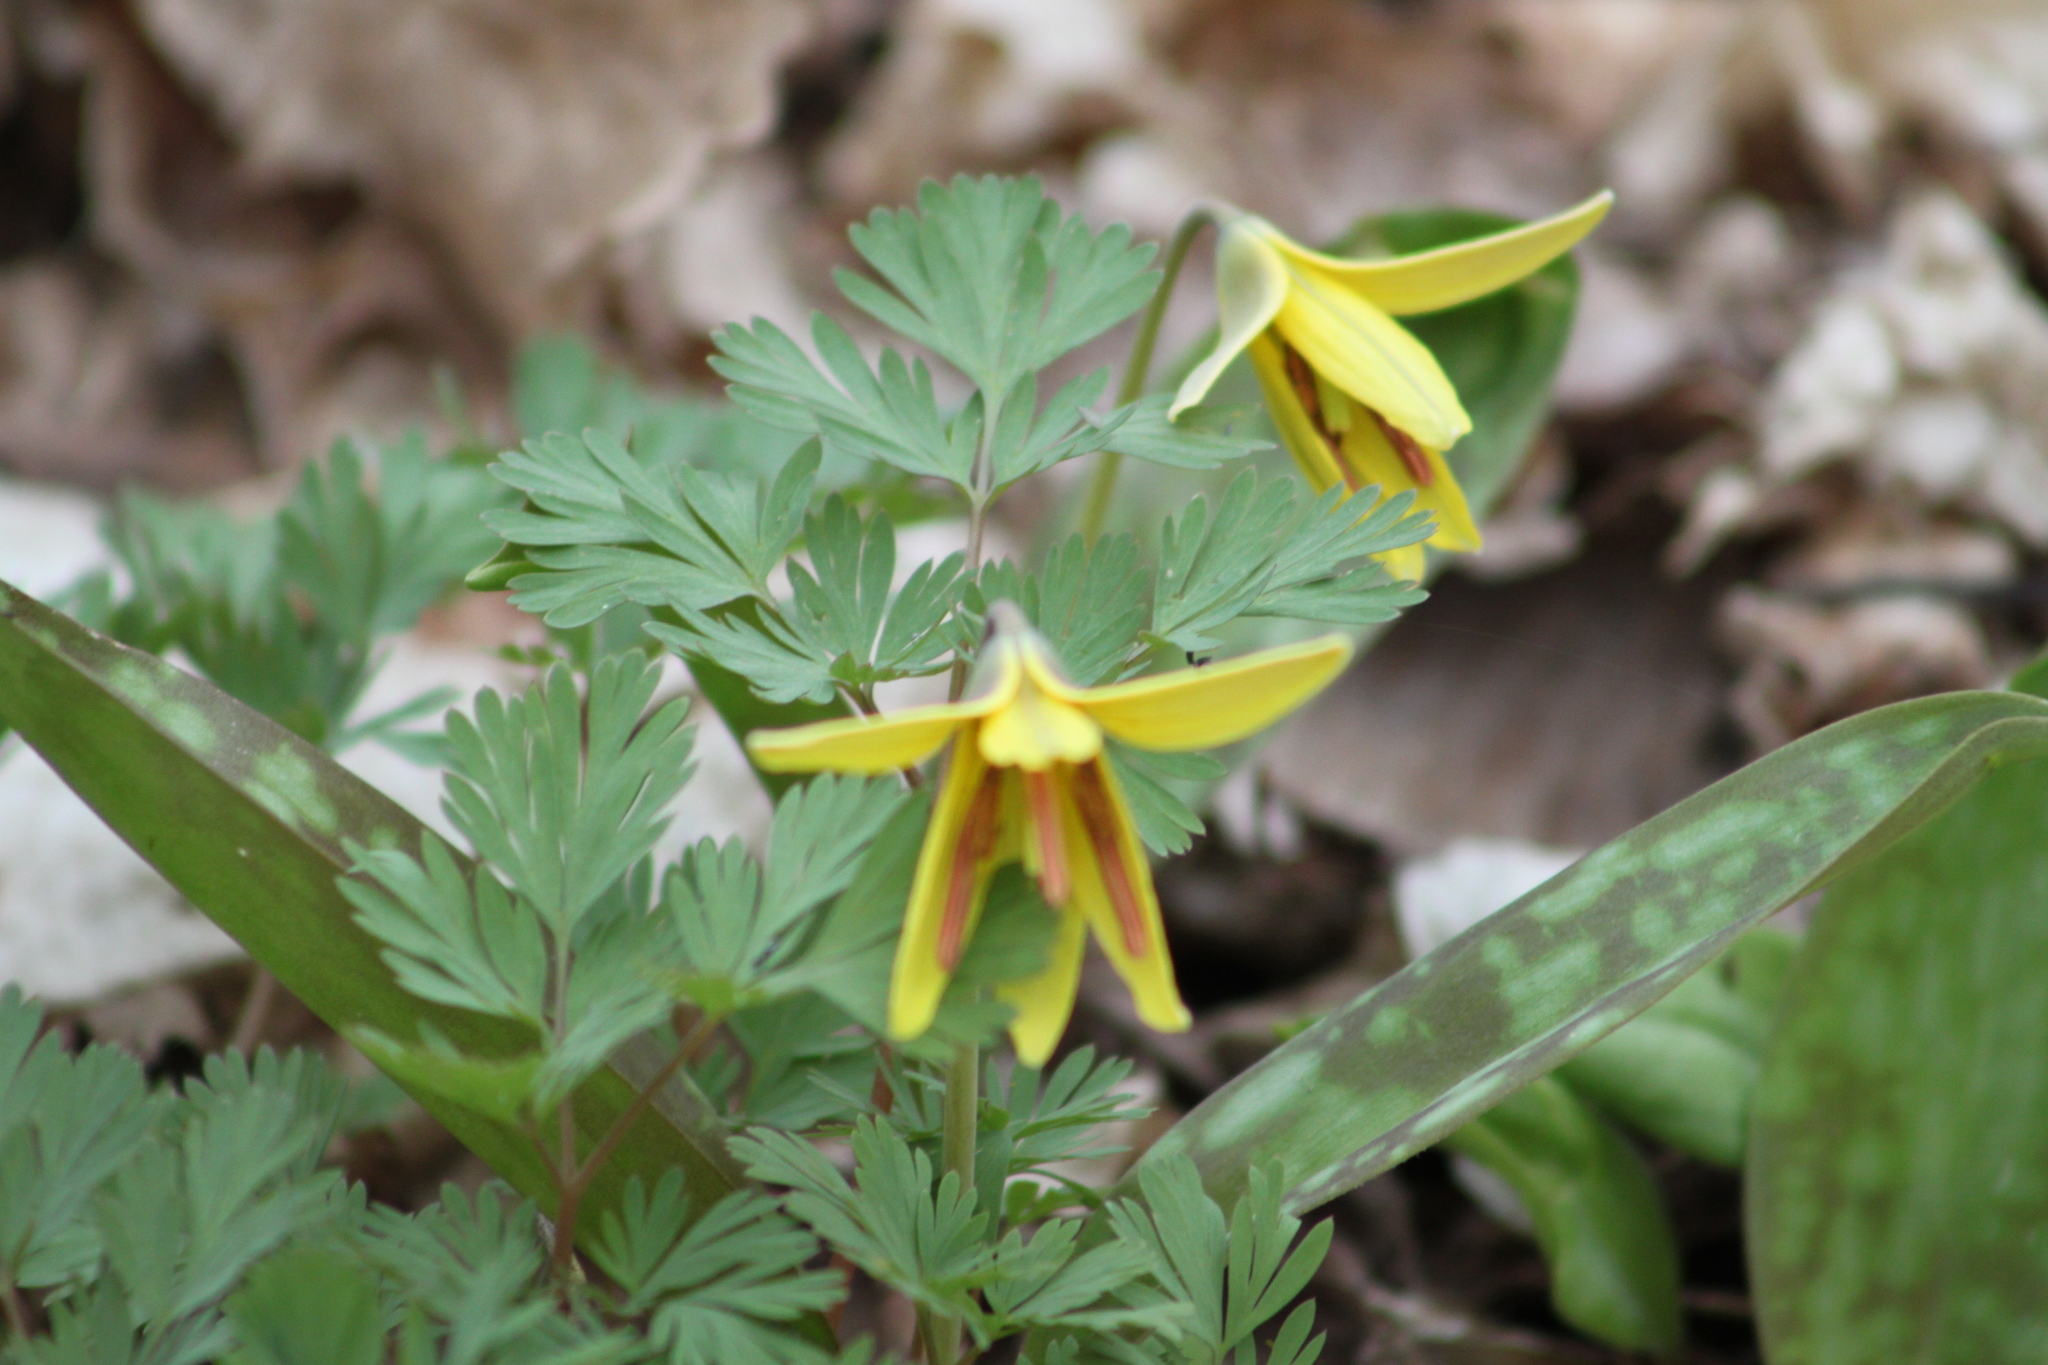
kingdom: Plantae
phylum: Tracheophyta
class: Liliopsida
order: Liliales
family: Liliaceae
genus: Erythronium
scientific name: Erythronium americanum
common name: Yellow adder's-tongue
